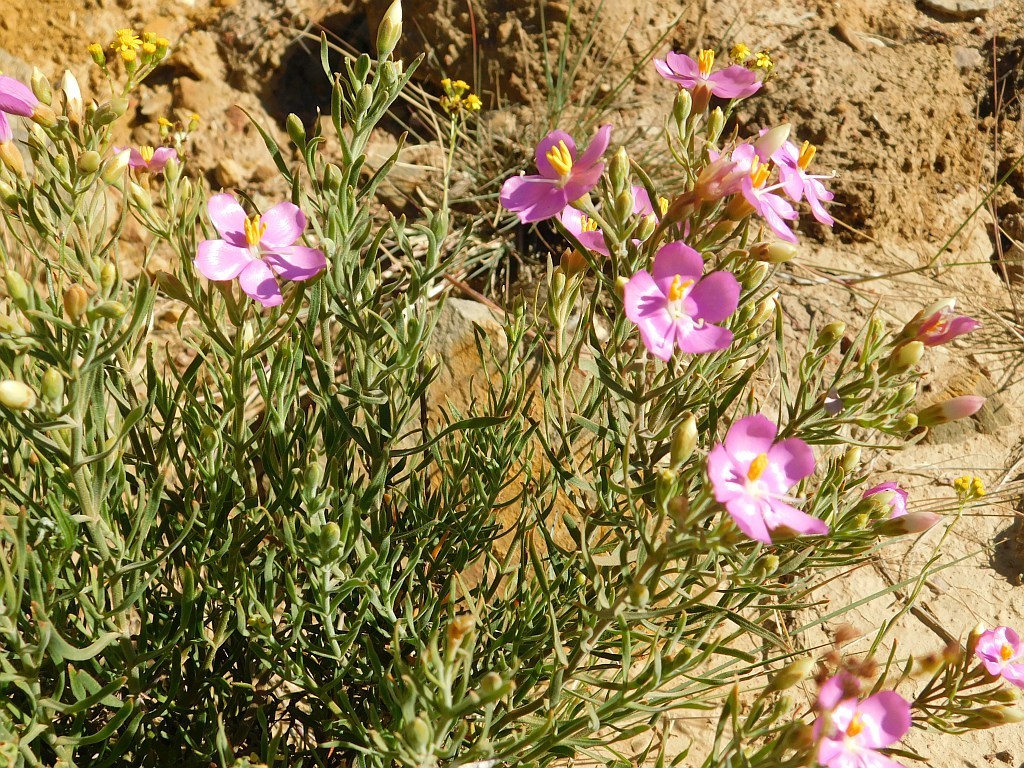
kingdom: Plantae
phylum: Tracheophyta
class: Magnoliopsida
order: Gentianales
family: Gentianaceae
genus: Orphium
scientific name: Orphium frutescens
